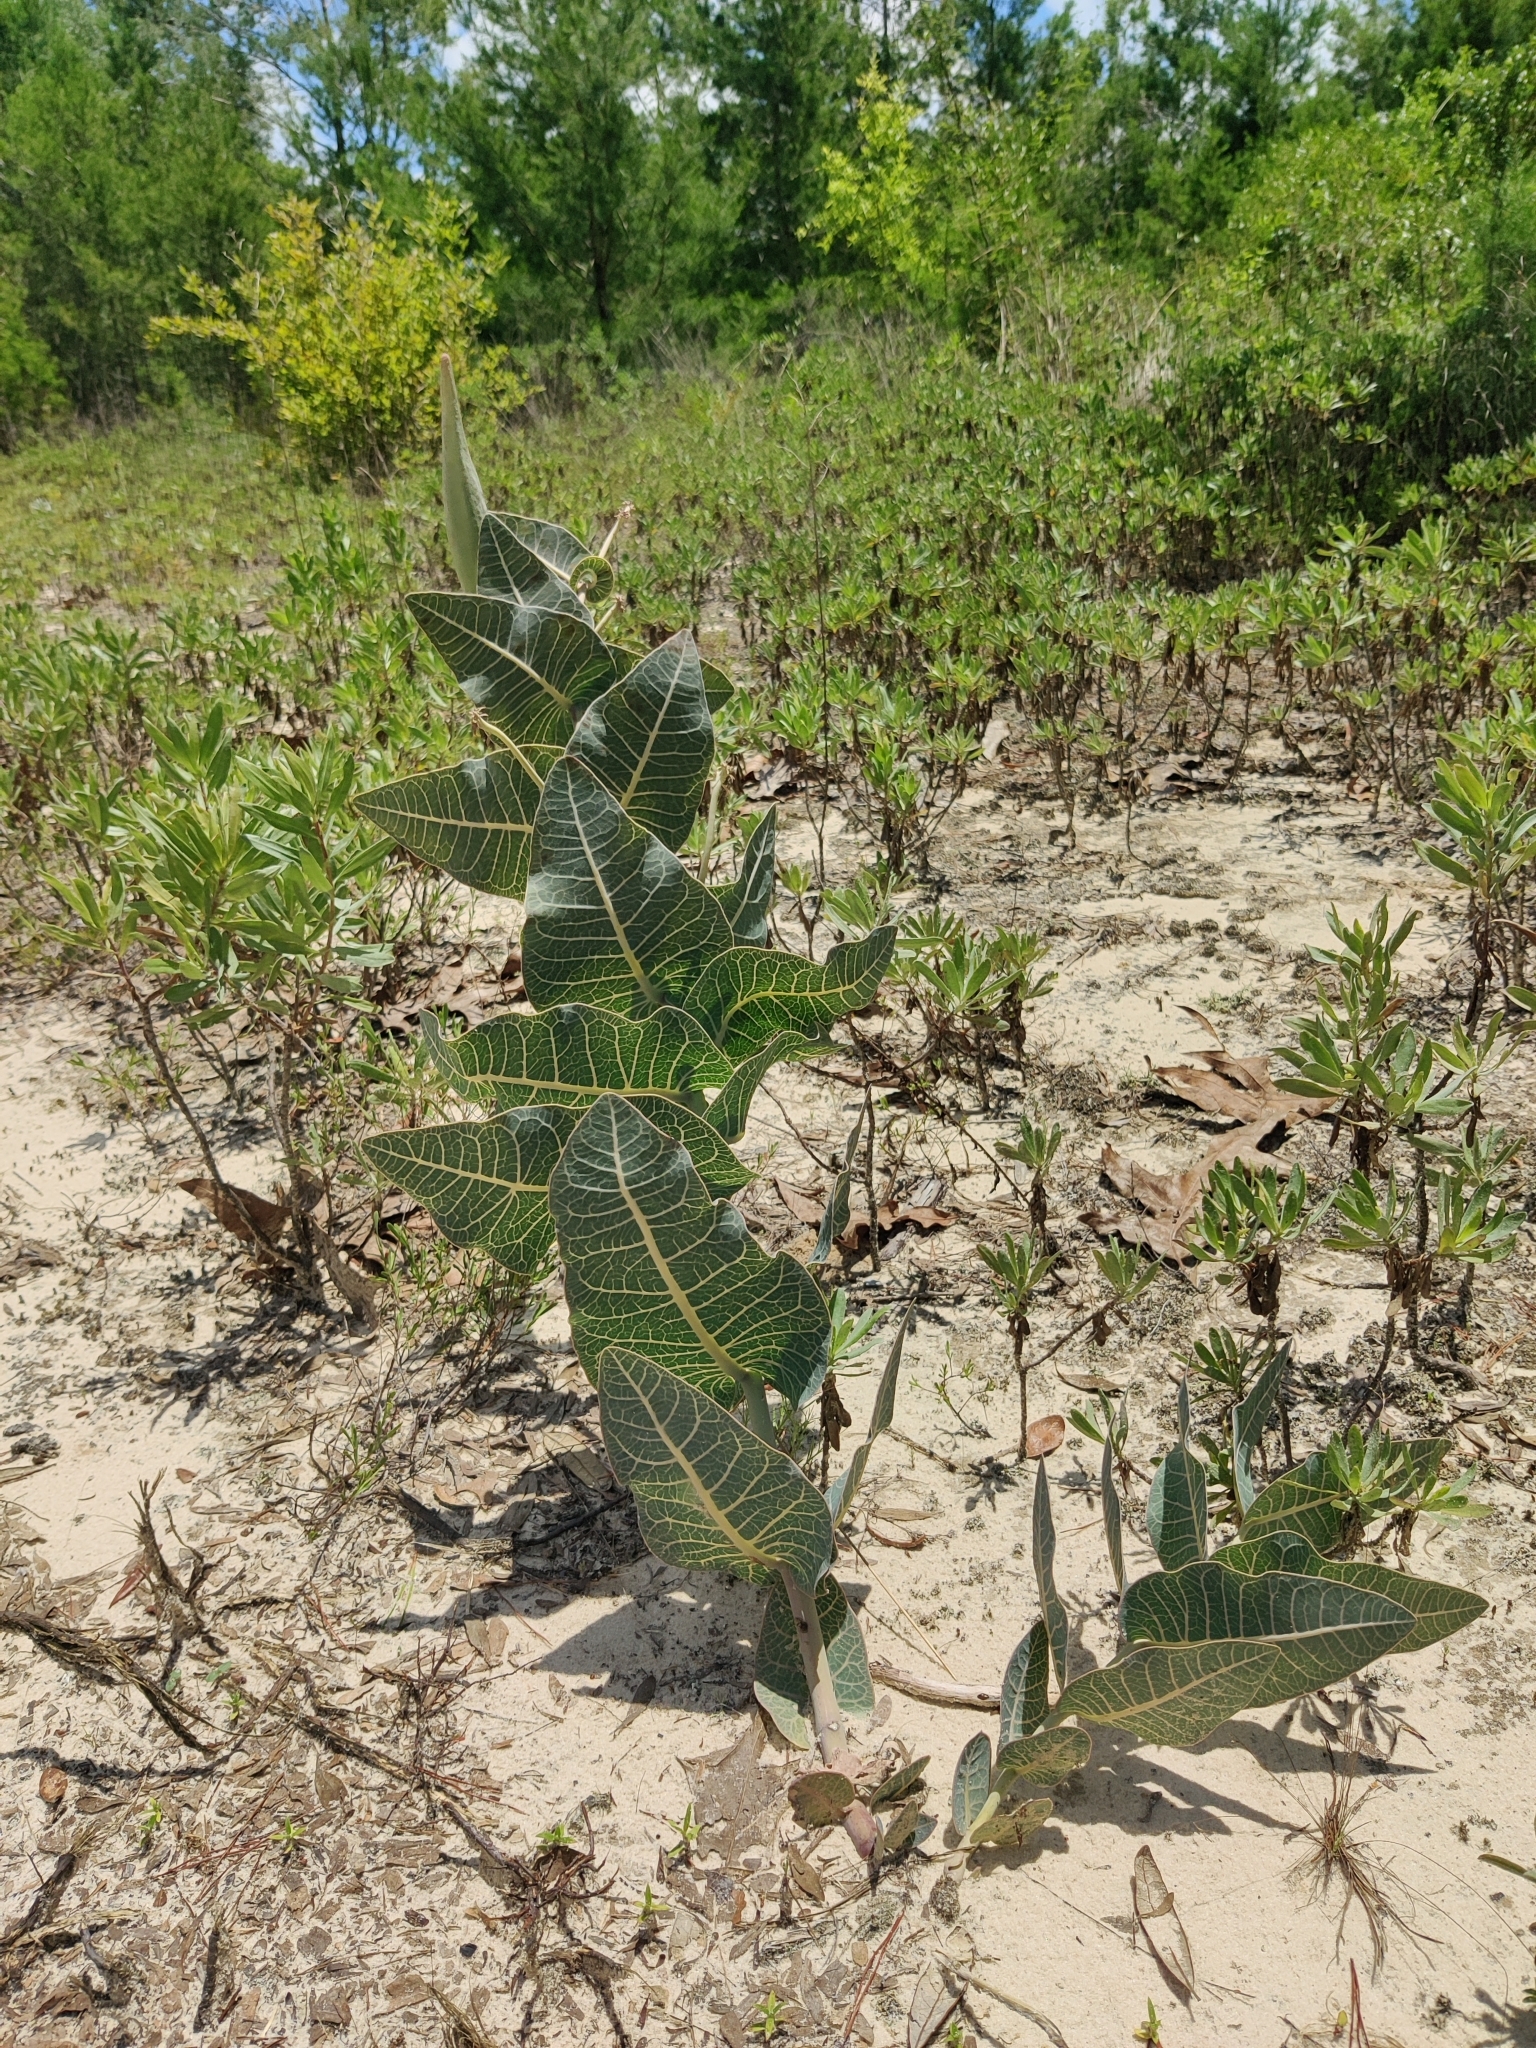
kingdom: Plantae
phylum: Tracheophyta
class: Magnoliopsida
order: Gentianales
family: Apocynaceae
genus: Asclepias
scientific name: Asclepias humistrata
